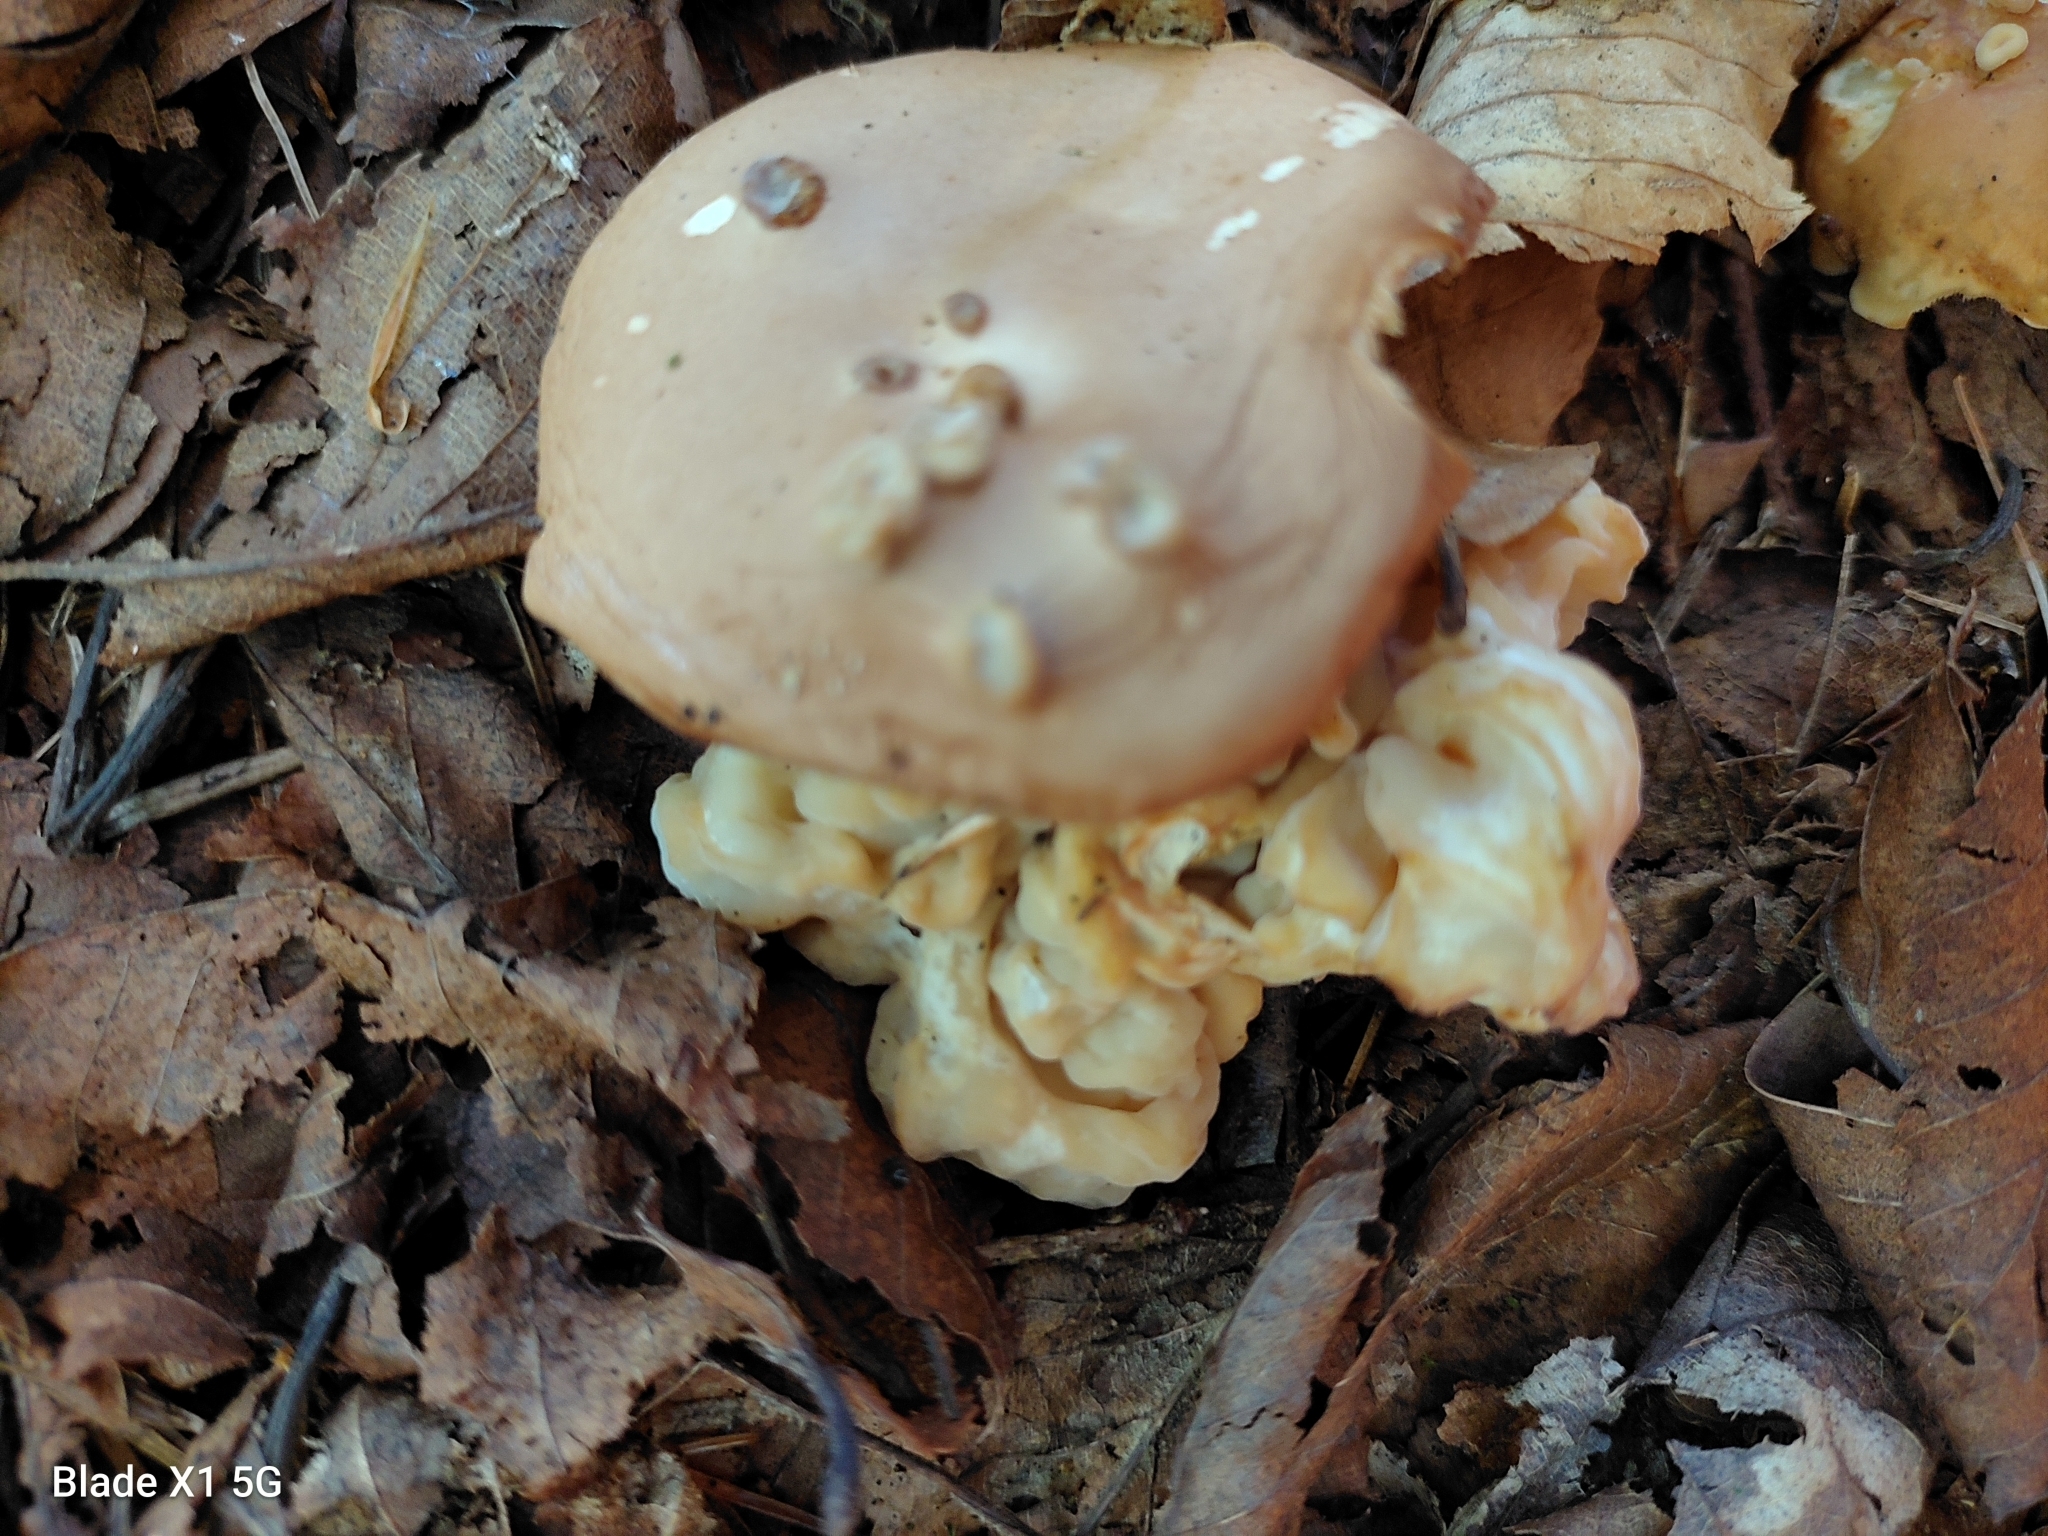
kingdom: Fungi
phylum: Basidiomycota
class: Tremellomycetes
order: Filobasidiales
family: Filobasidiaceae
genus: Syzygospora
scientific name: Syzygospora mycetophila
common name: Collybia clouds
